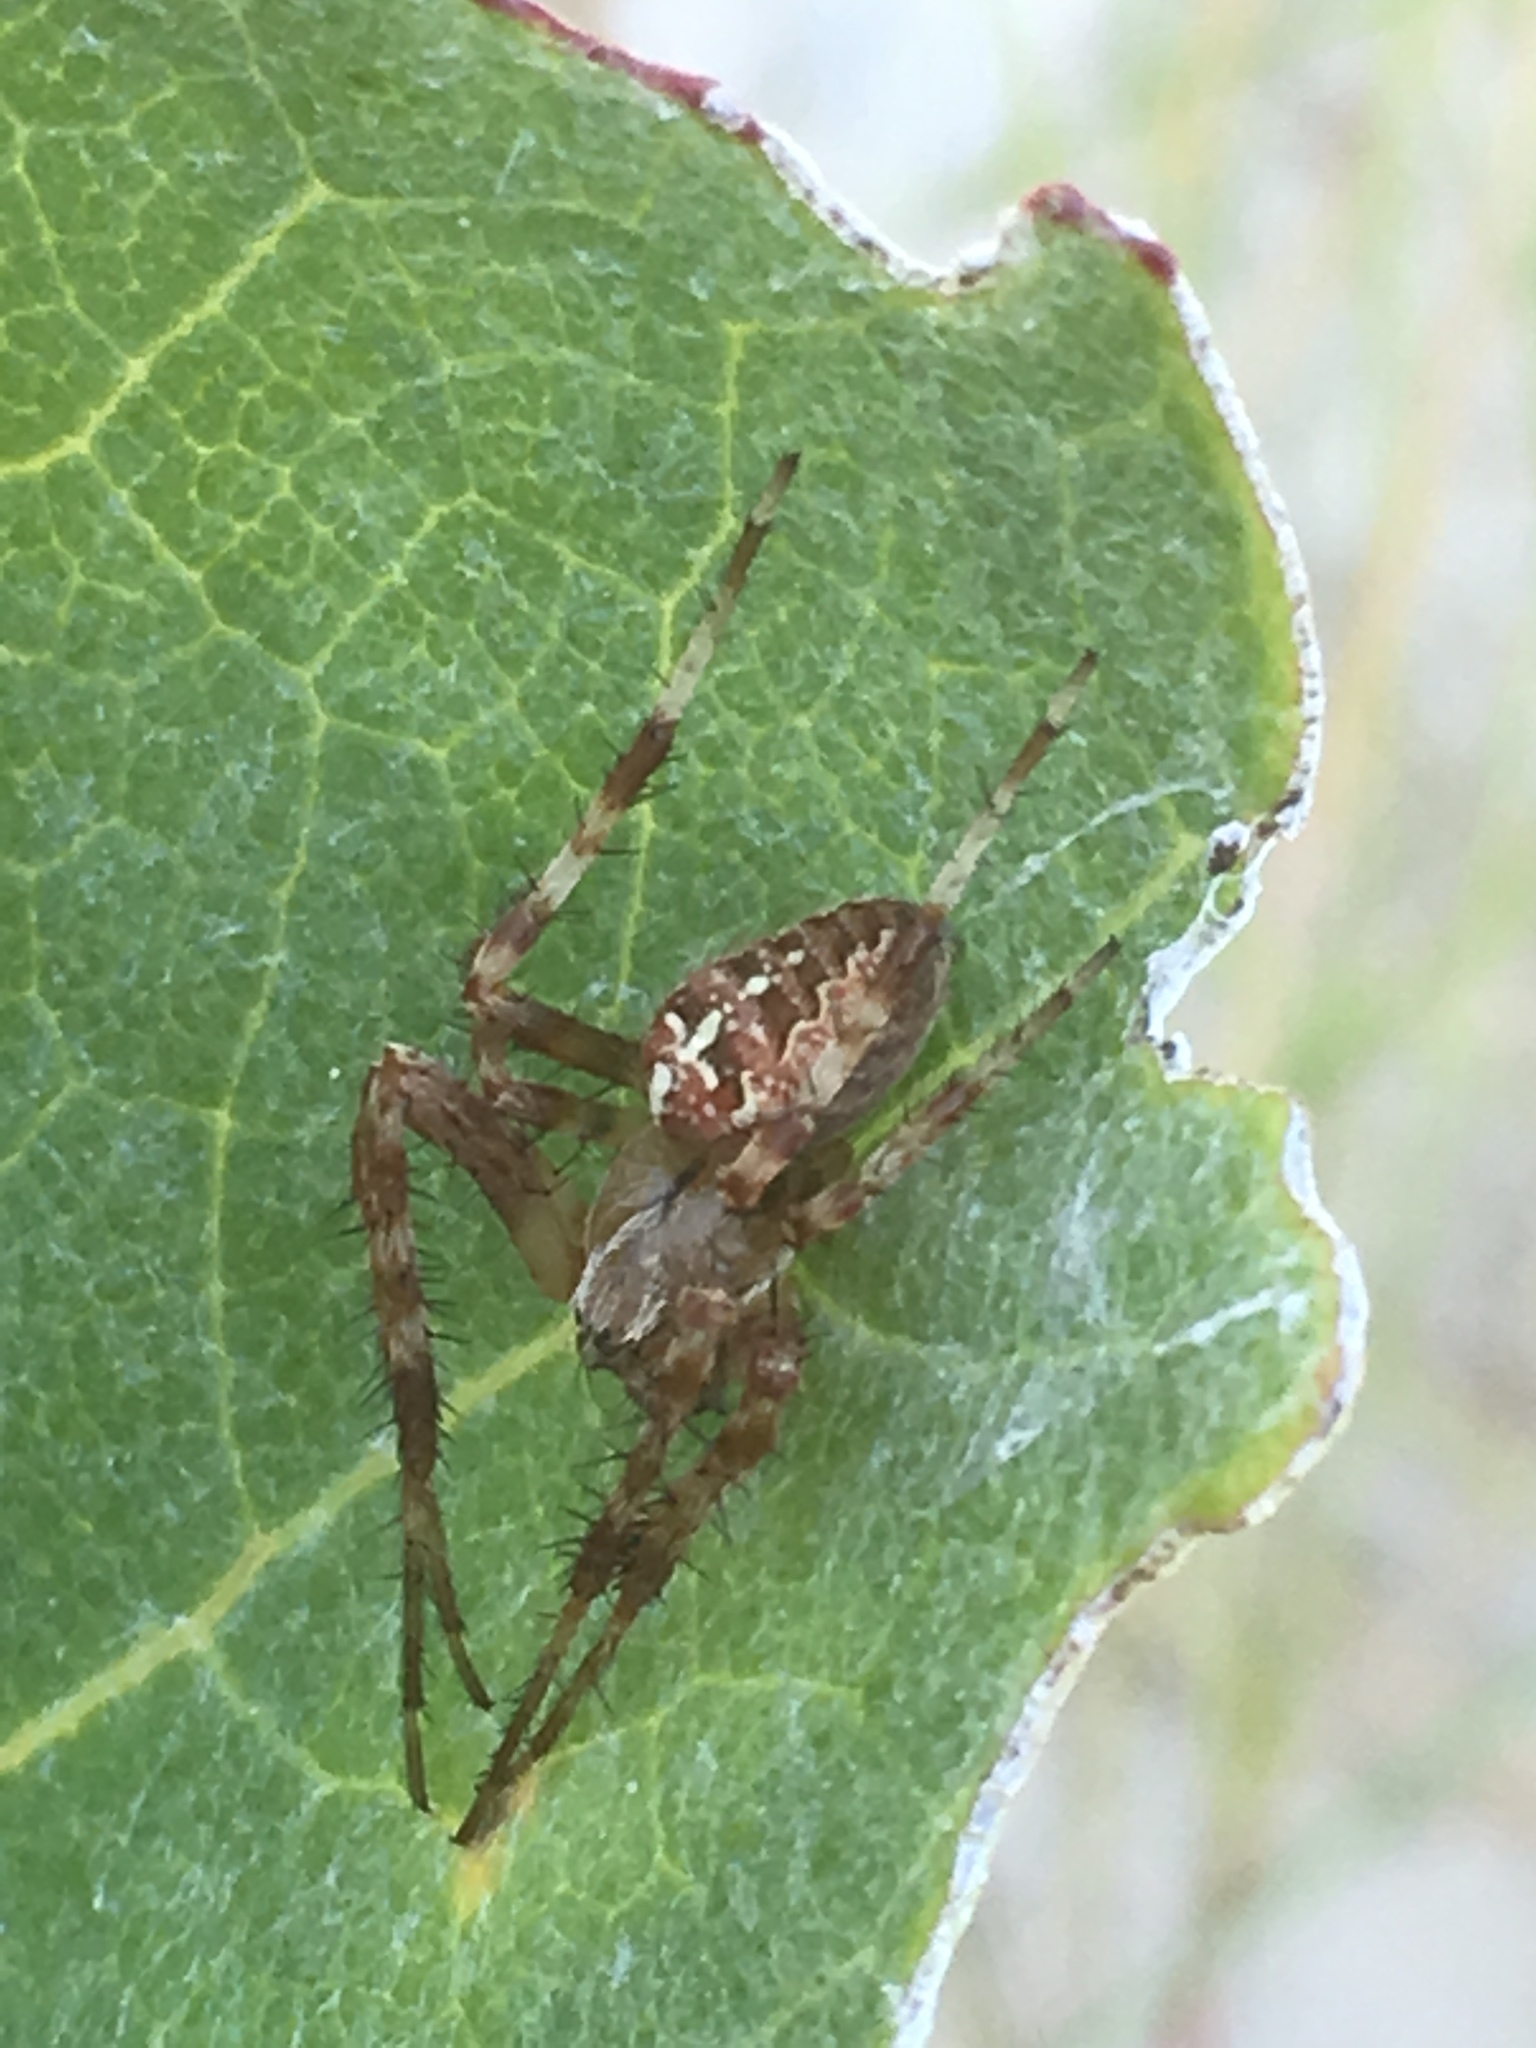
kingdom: Animalia
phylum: Arthropoda
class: Arachnida
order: Araneae
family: Araneidae
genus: Araneus
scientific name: Araneus diadematus
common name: Cross orbweaver
